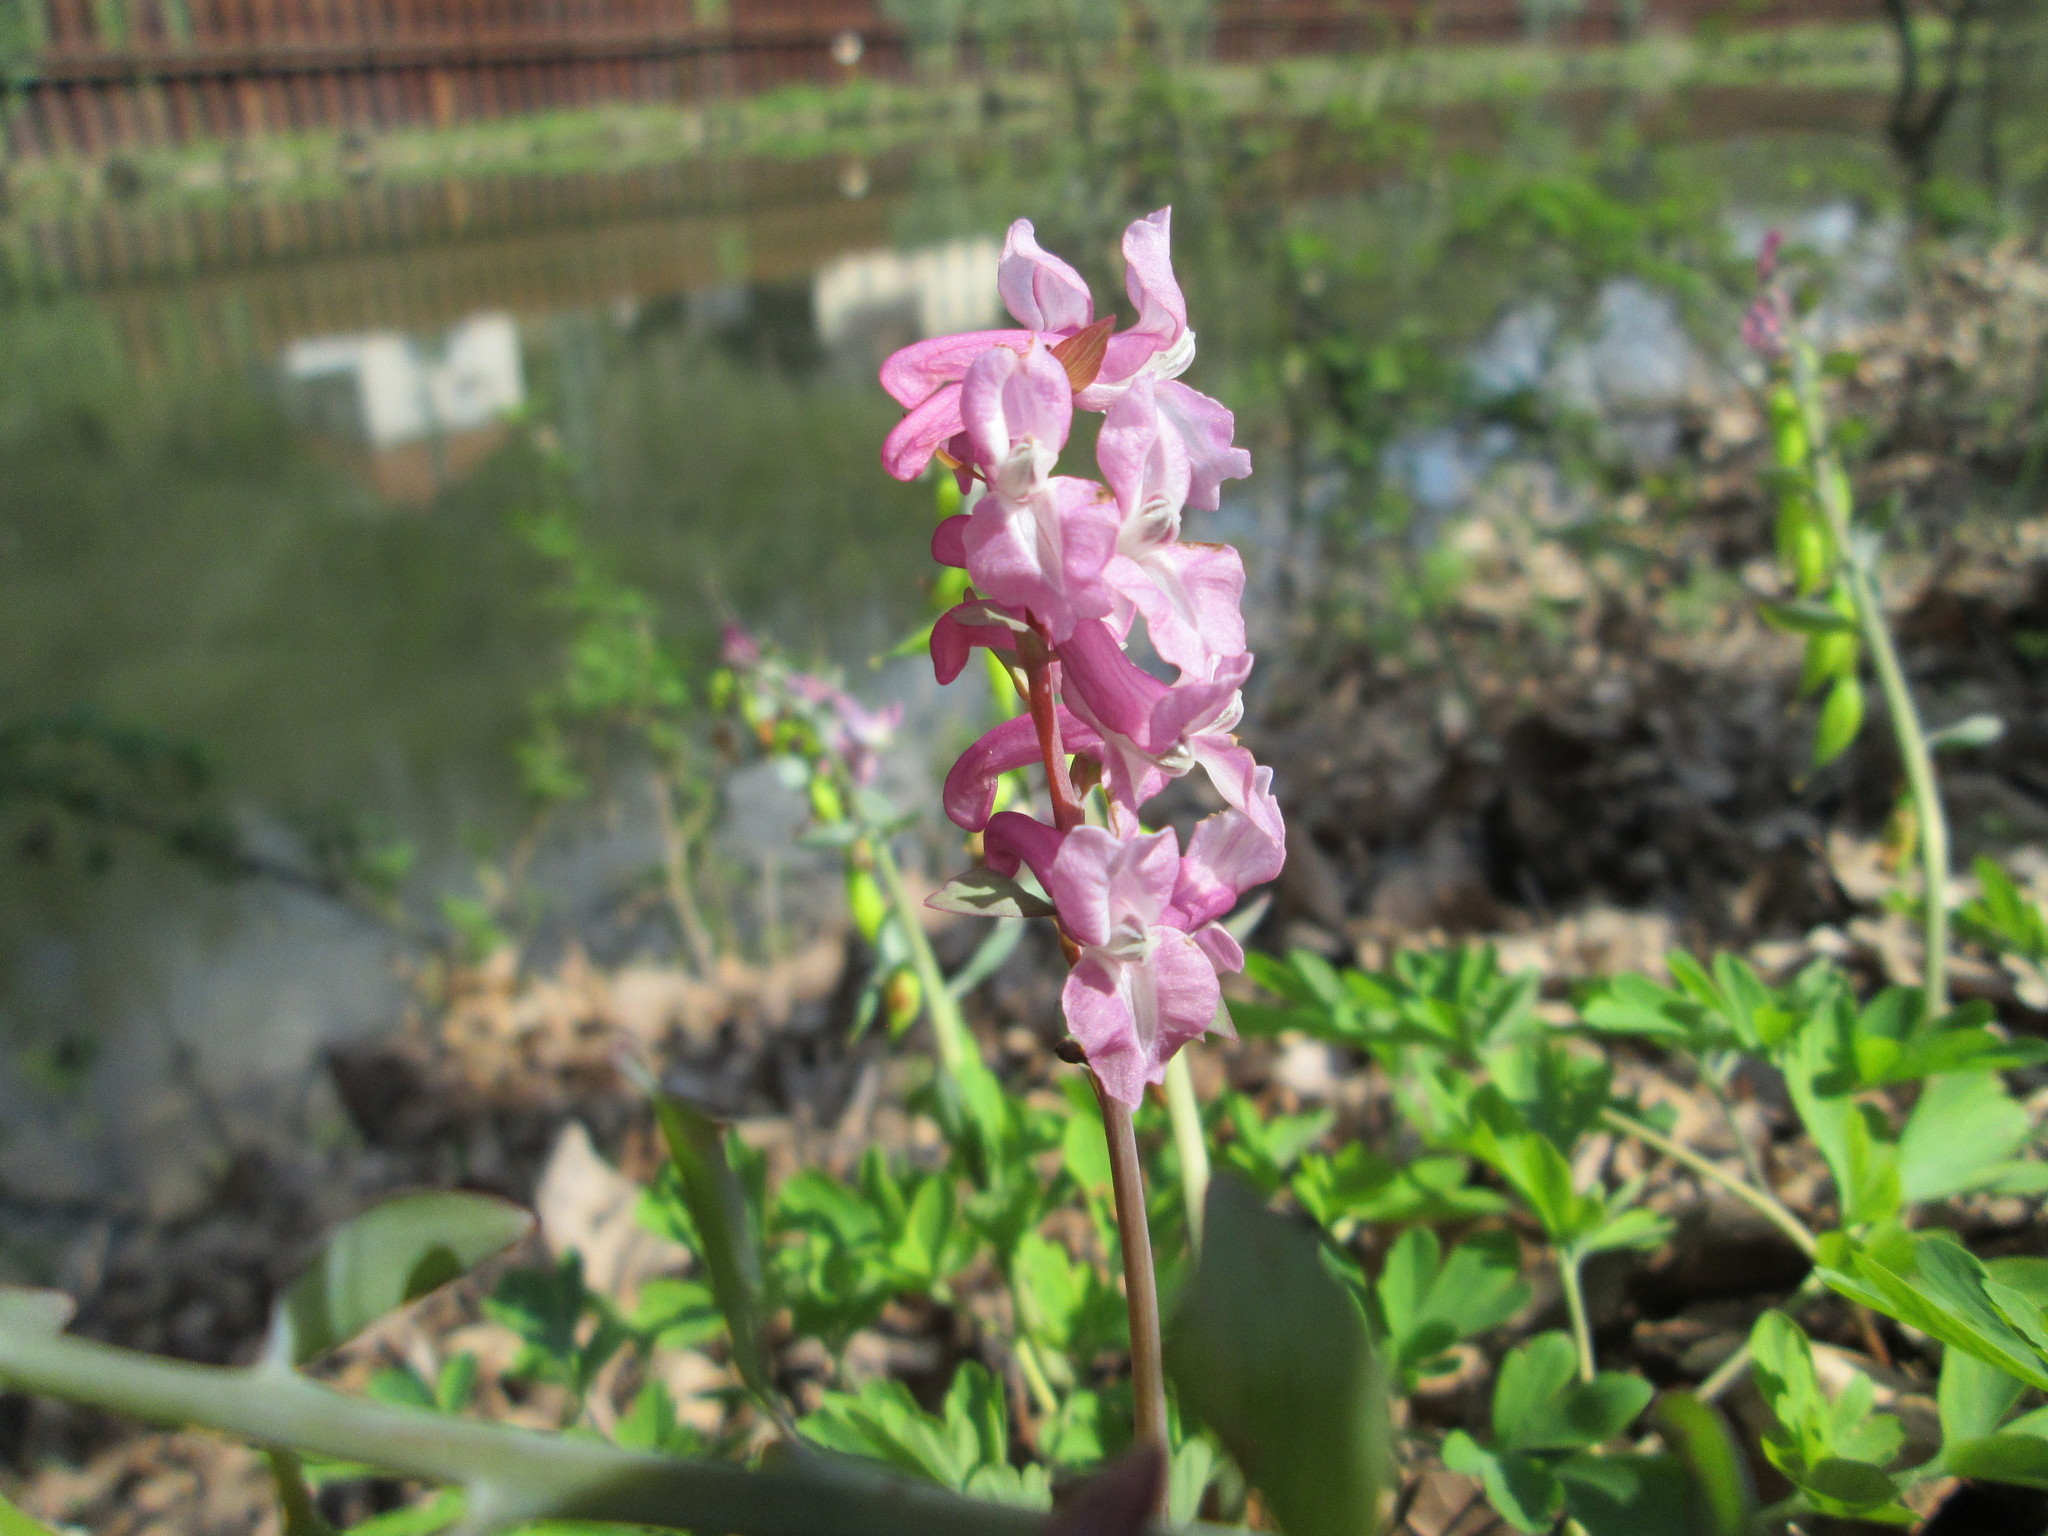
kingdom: Plantae
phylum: Tracheophyta
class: Magnoliopsida
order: Ranunculales
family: Papaveraceae
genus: Corydalis
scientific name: Corydalis cava
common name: Hollowroot
